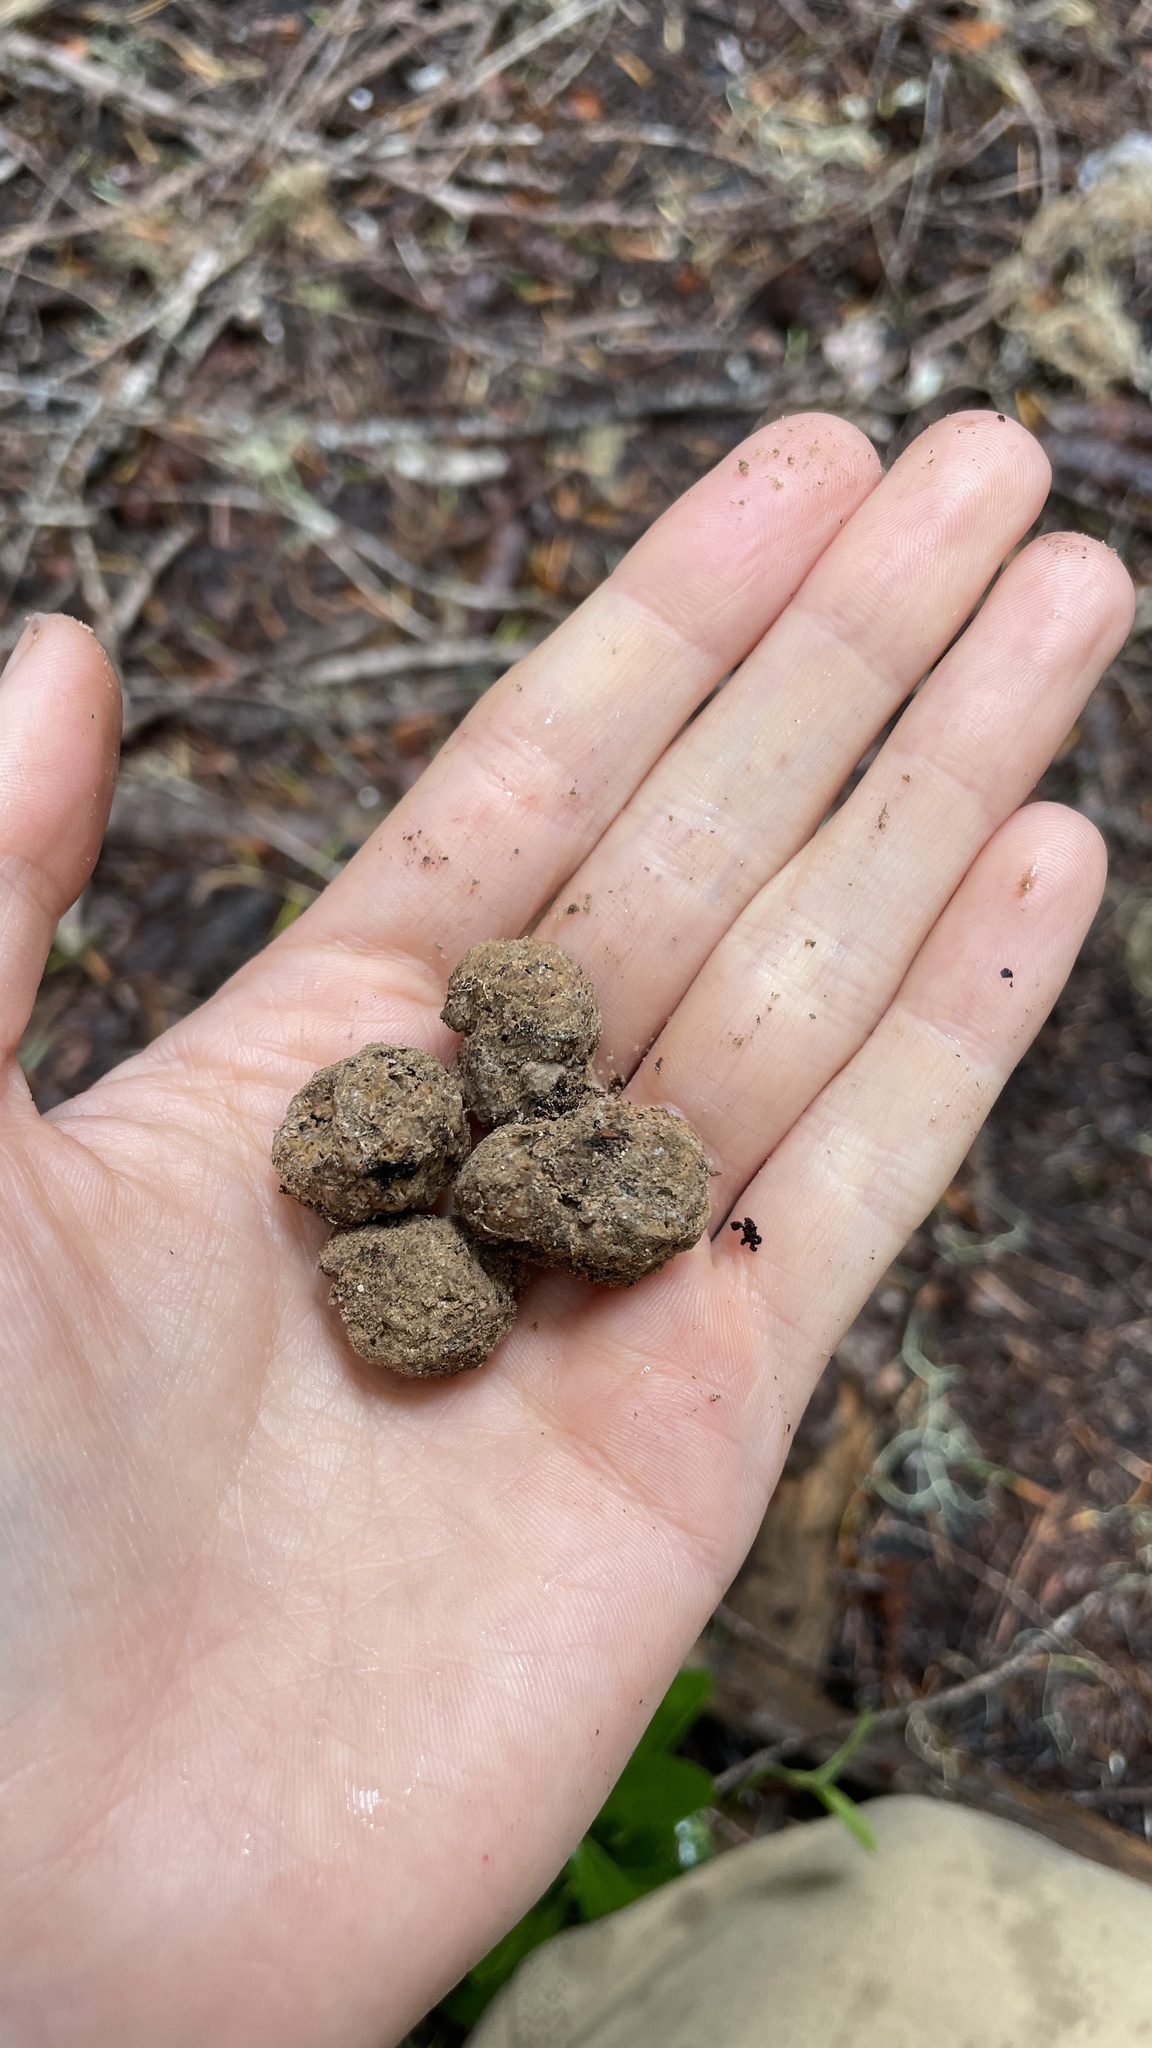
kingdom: Fungi
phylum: Basidiomycota
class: Agaricomycetes
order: Gomphales
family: Gomphaceae
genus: Gautieria
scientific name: Gautieria monticola
